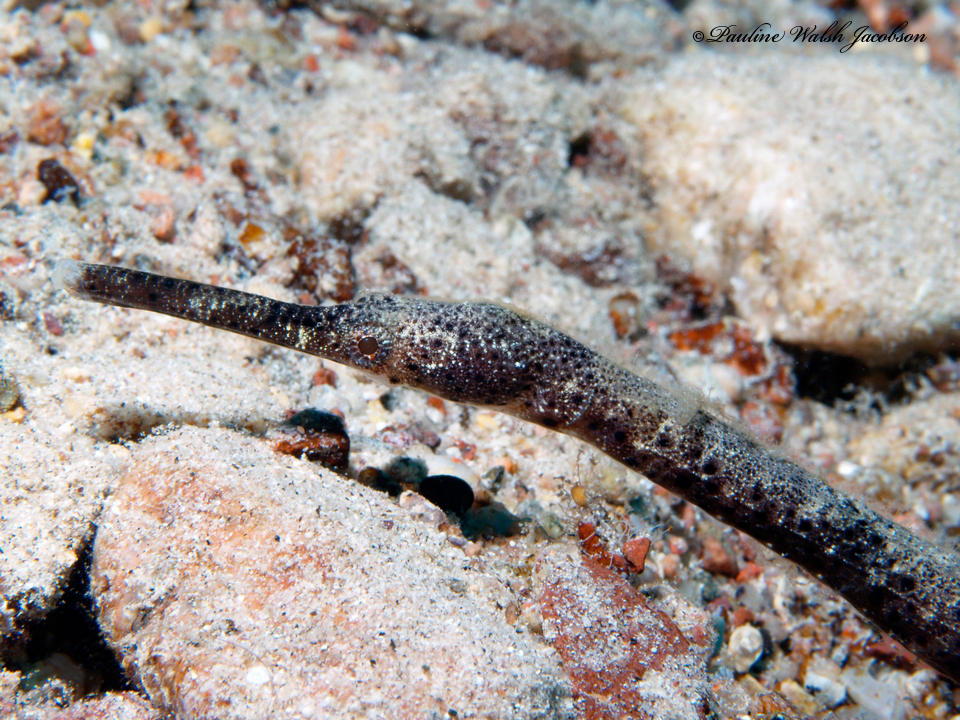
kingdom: Animalia
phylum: Chordata
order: Syngnathiformes
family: Syngnathidae
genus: Trachyrhamphus
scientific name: Trachyrhamphus bicoarctatus
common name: Double-ended pipefish
